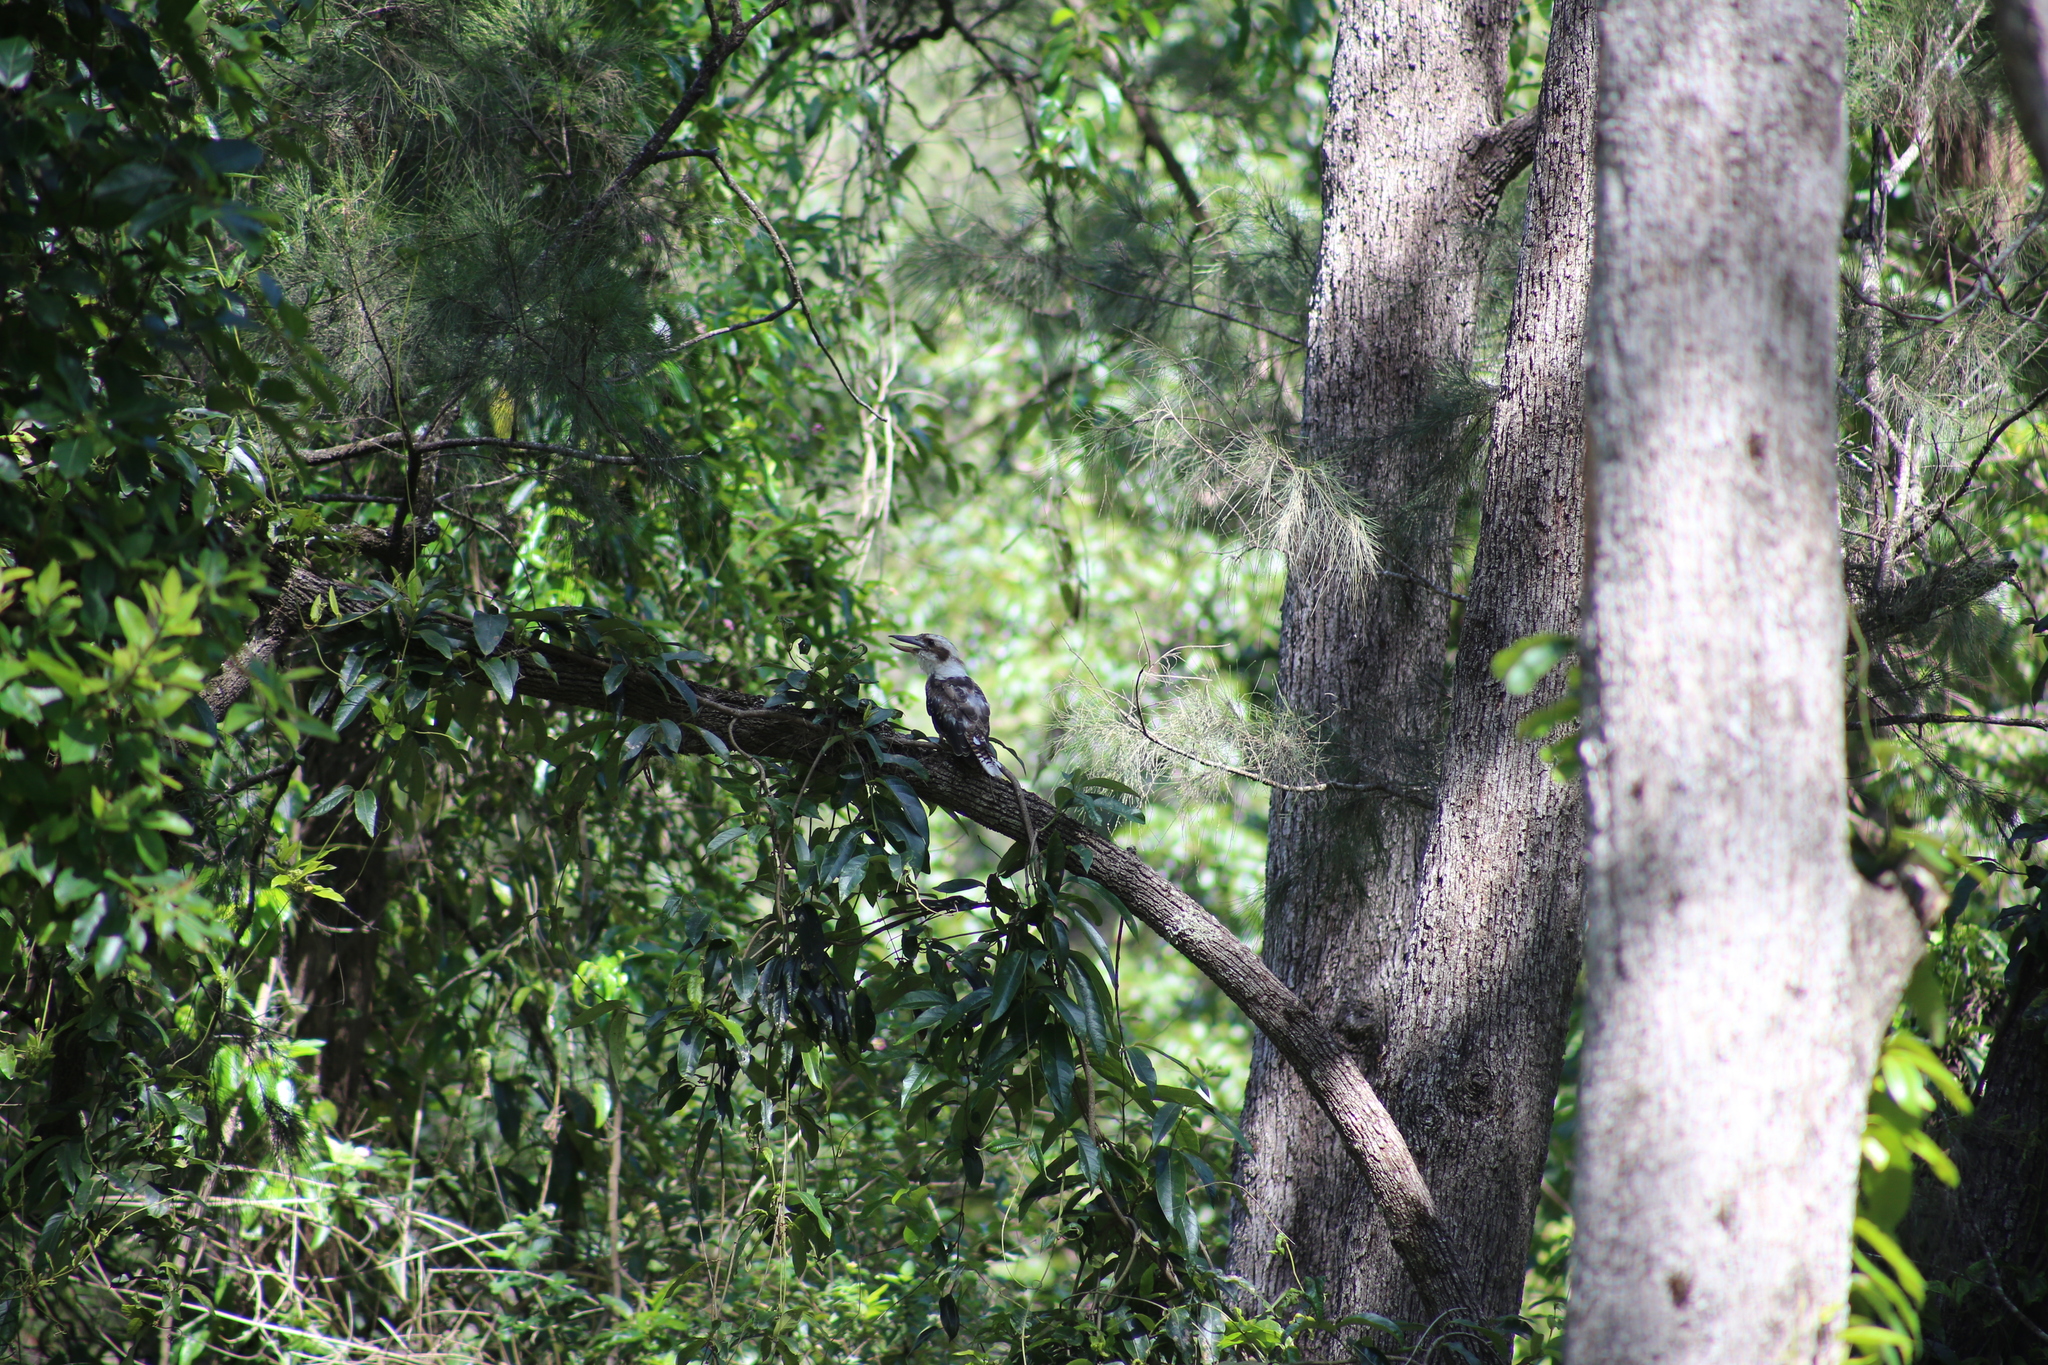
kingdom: Animalia
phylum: Chordata
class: Aves
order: Coraciiformes
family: Alcedinidae
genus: Dacelo
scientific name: Dacelo novaeguineae
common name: Laughing kookaburra
